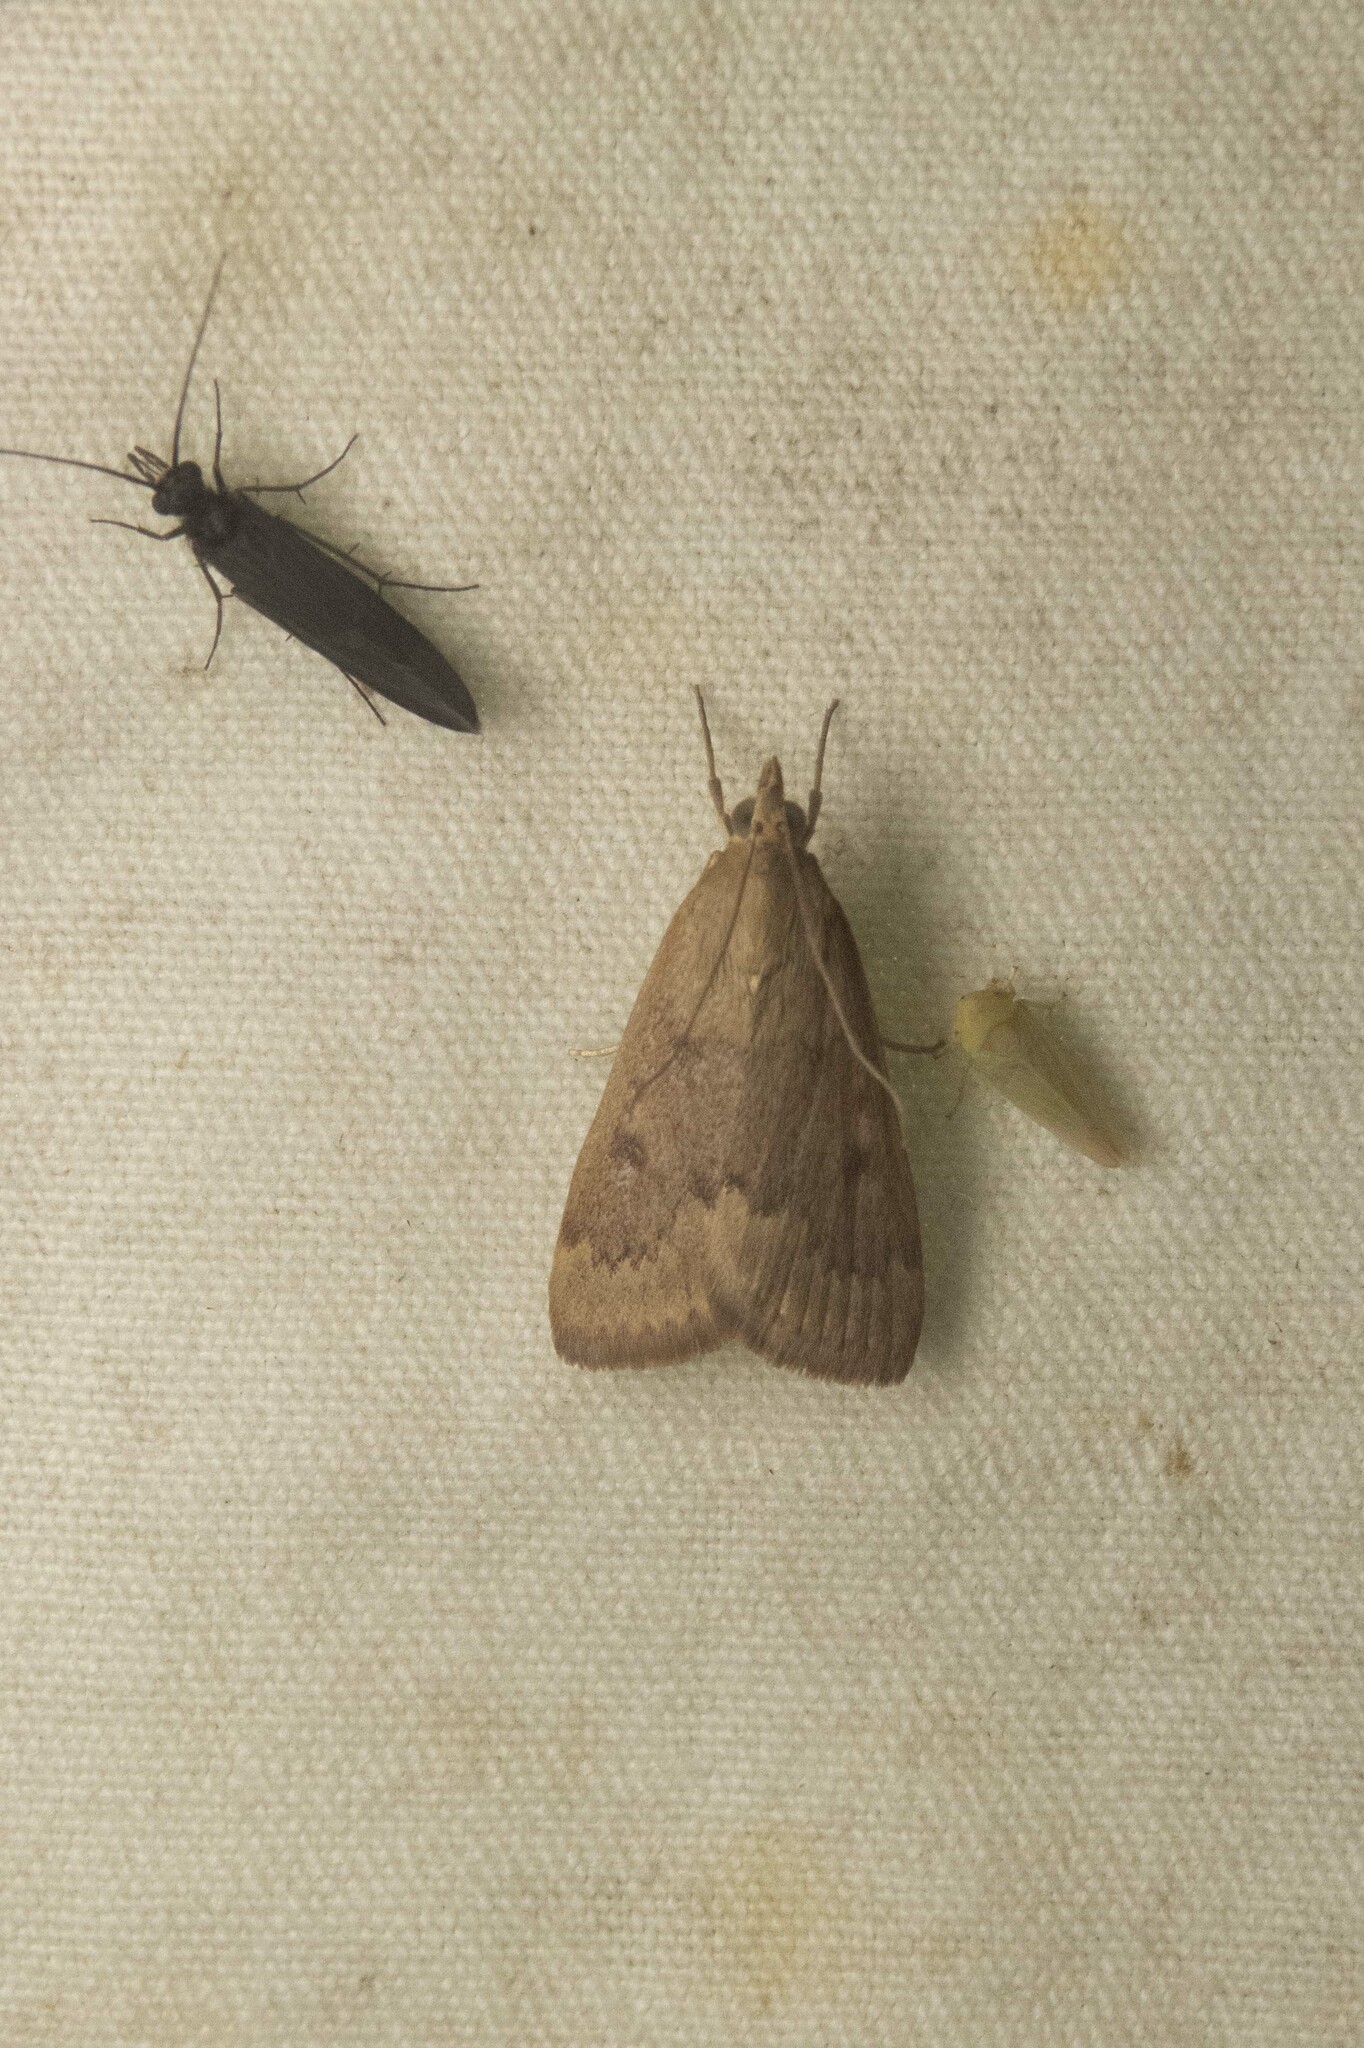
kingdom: Animalia
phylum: Arthropoda
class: Insecta
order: Lepidoptera
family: Crambidae
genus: Achyra
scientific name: Achyra rantalis
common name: Garden webworm
